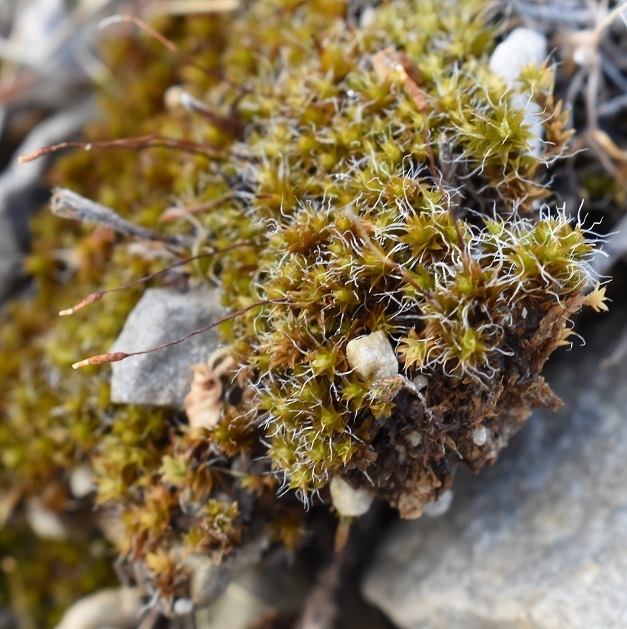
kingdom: Plantae
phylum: Bryophyta
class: Bryopsida
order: Pottiales
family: Pottiaceae
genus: Syntrichia
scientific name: Syntrichia caninervis
